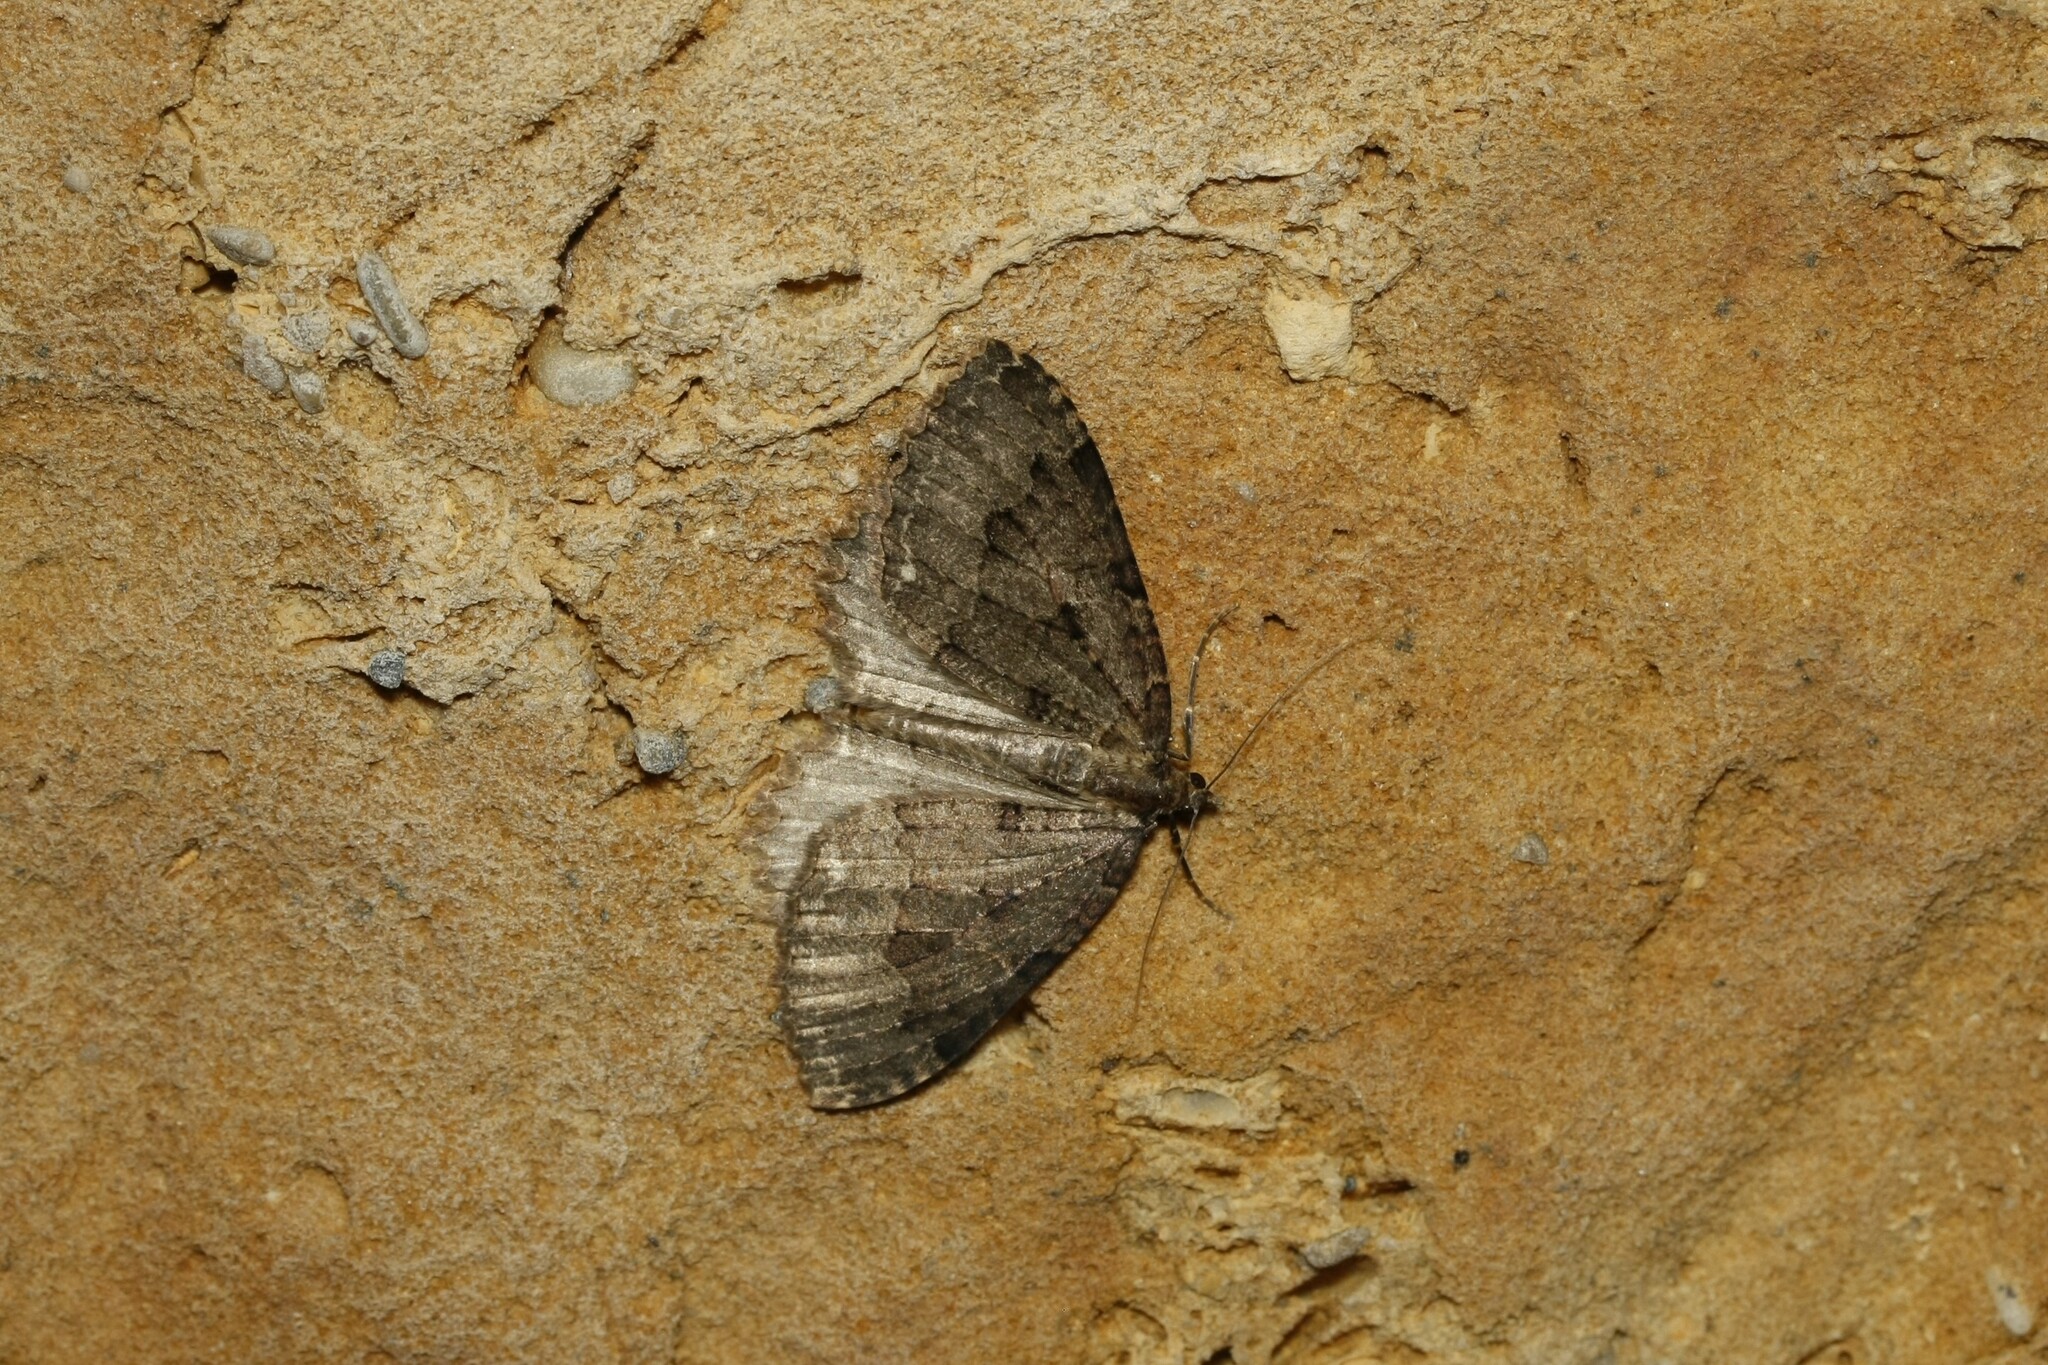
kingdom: Animalia
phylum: Arthropoda
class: Insecta
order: Lepidoptera
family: Geometridae
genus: Triphosa
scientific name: Triphosa dubitata
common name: Tissue
